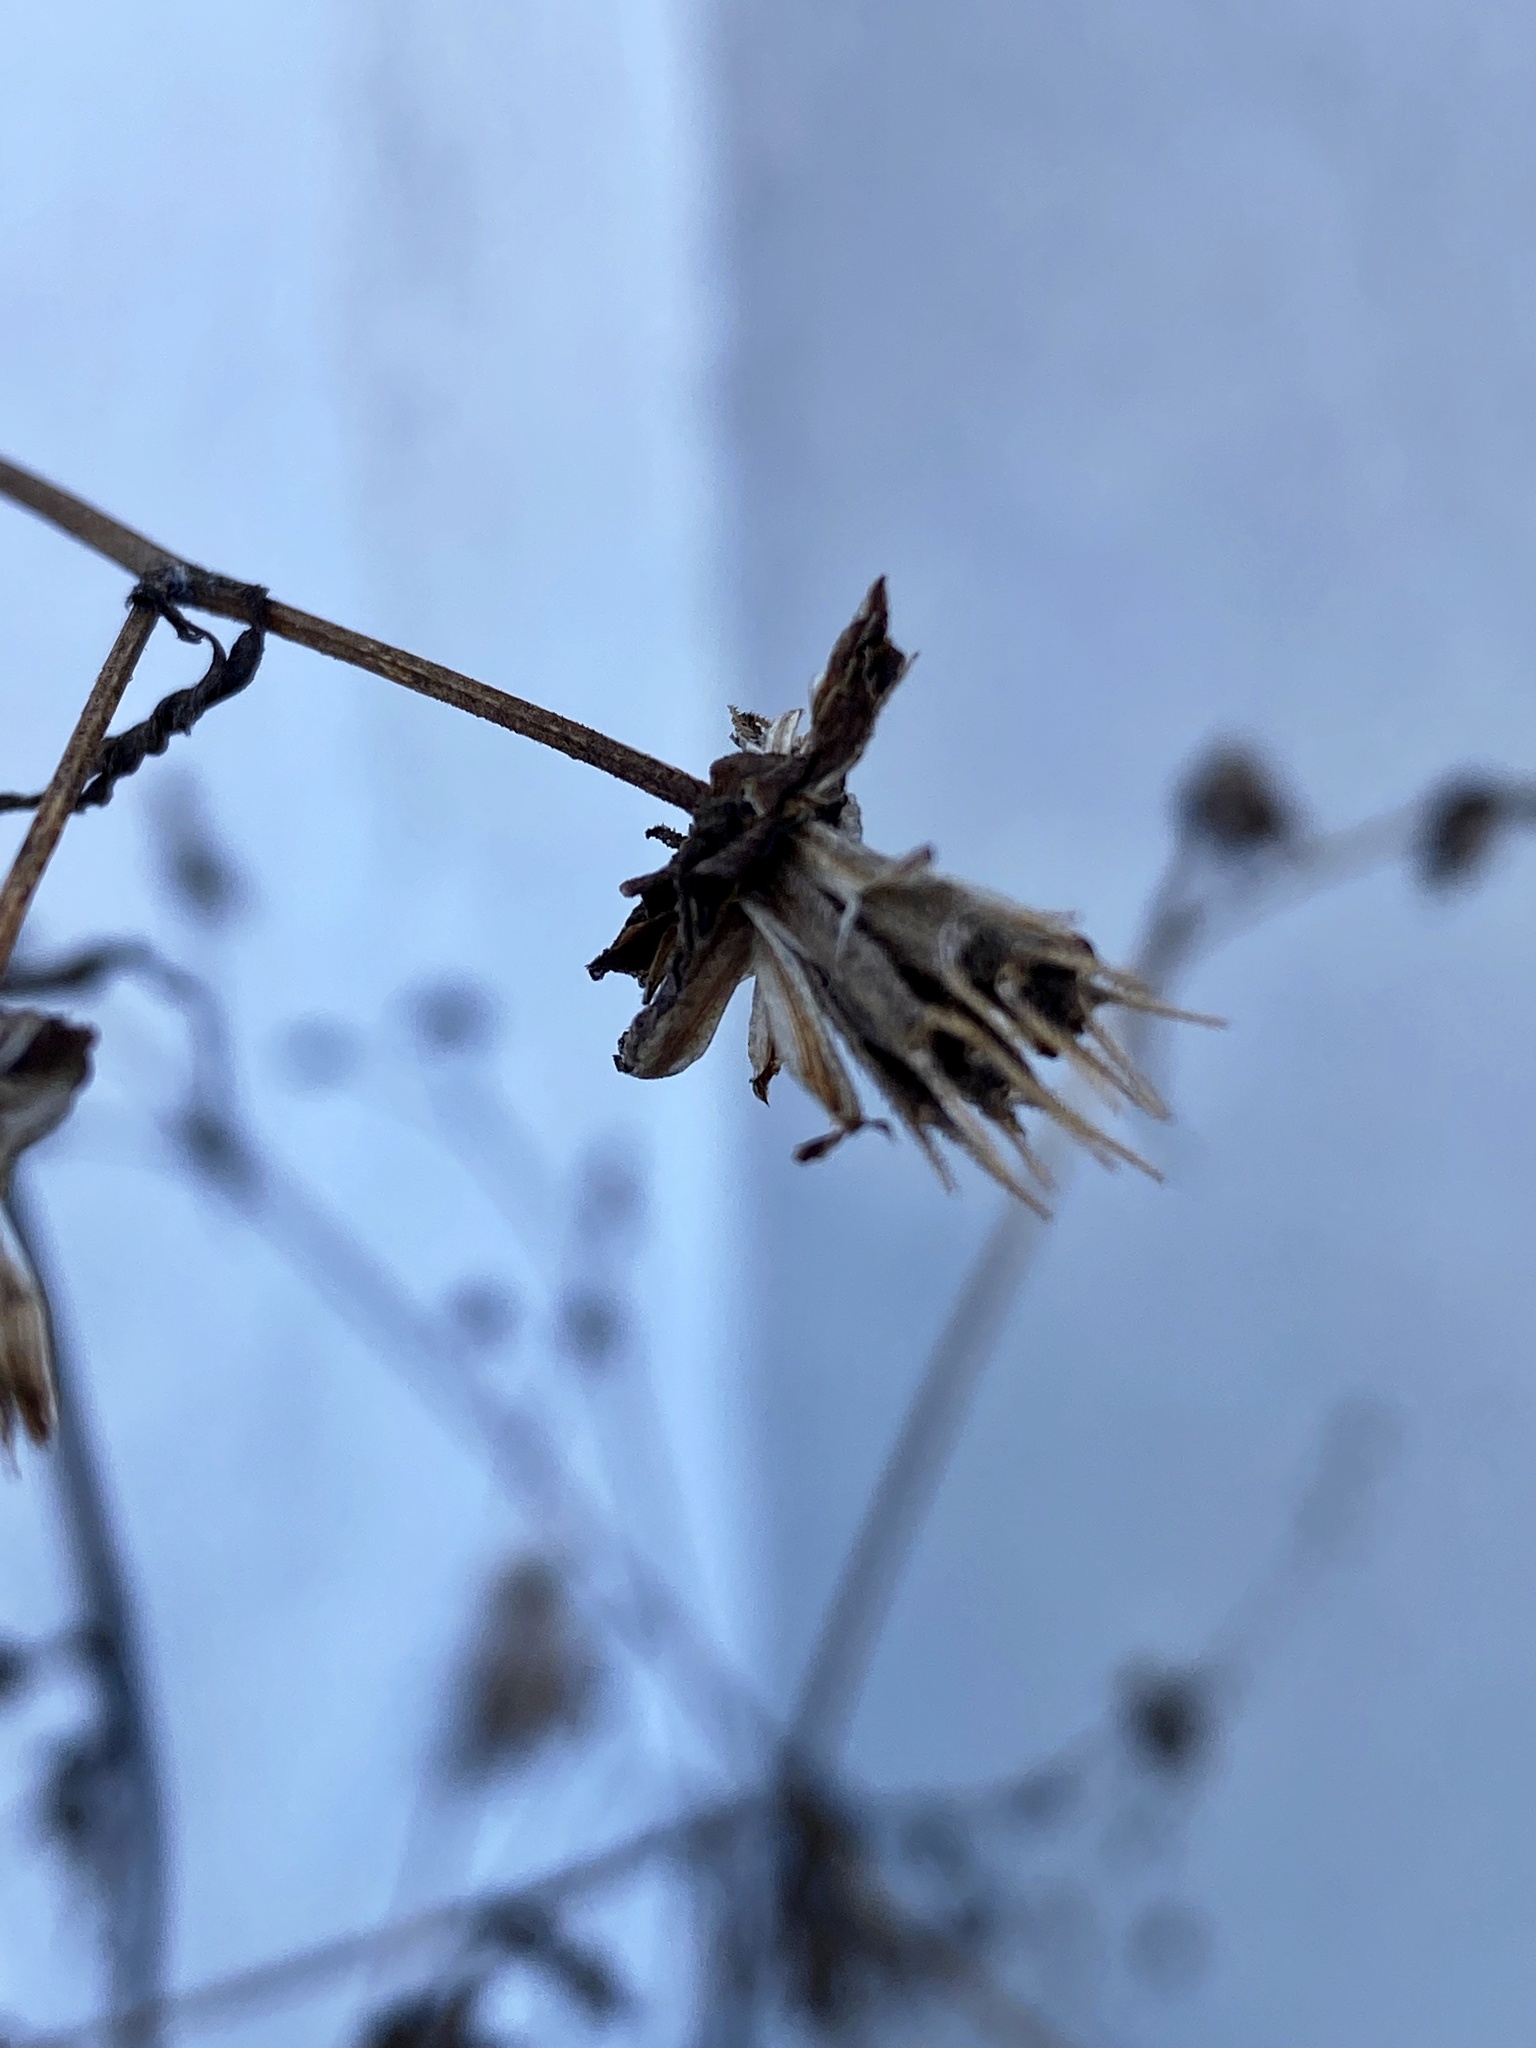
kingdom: Plantae
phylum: Tracheophyta
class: Magnoliopsida
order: Asterales
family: Asteraceae
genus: Bidens
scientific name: Bidens frondosa
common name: Beggarticks
